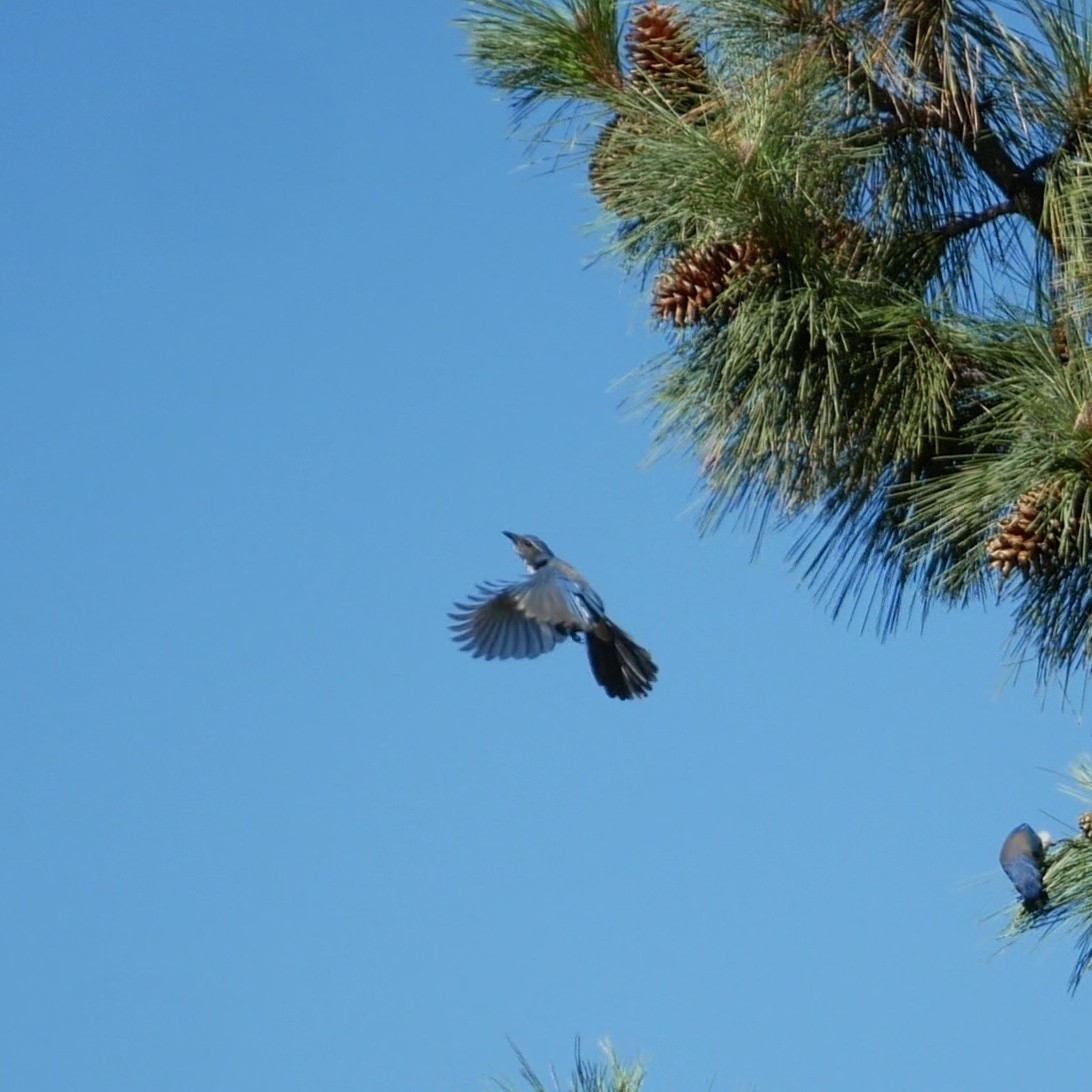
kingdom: Animalia
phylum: Chordata
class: Aves
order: Passeriformes
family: Corvidae
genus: Aphelocoma
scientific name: Aphelocoma californica
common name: California scrub-jay
